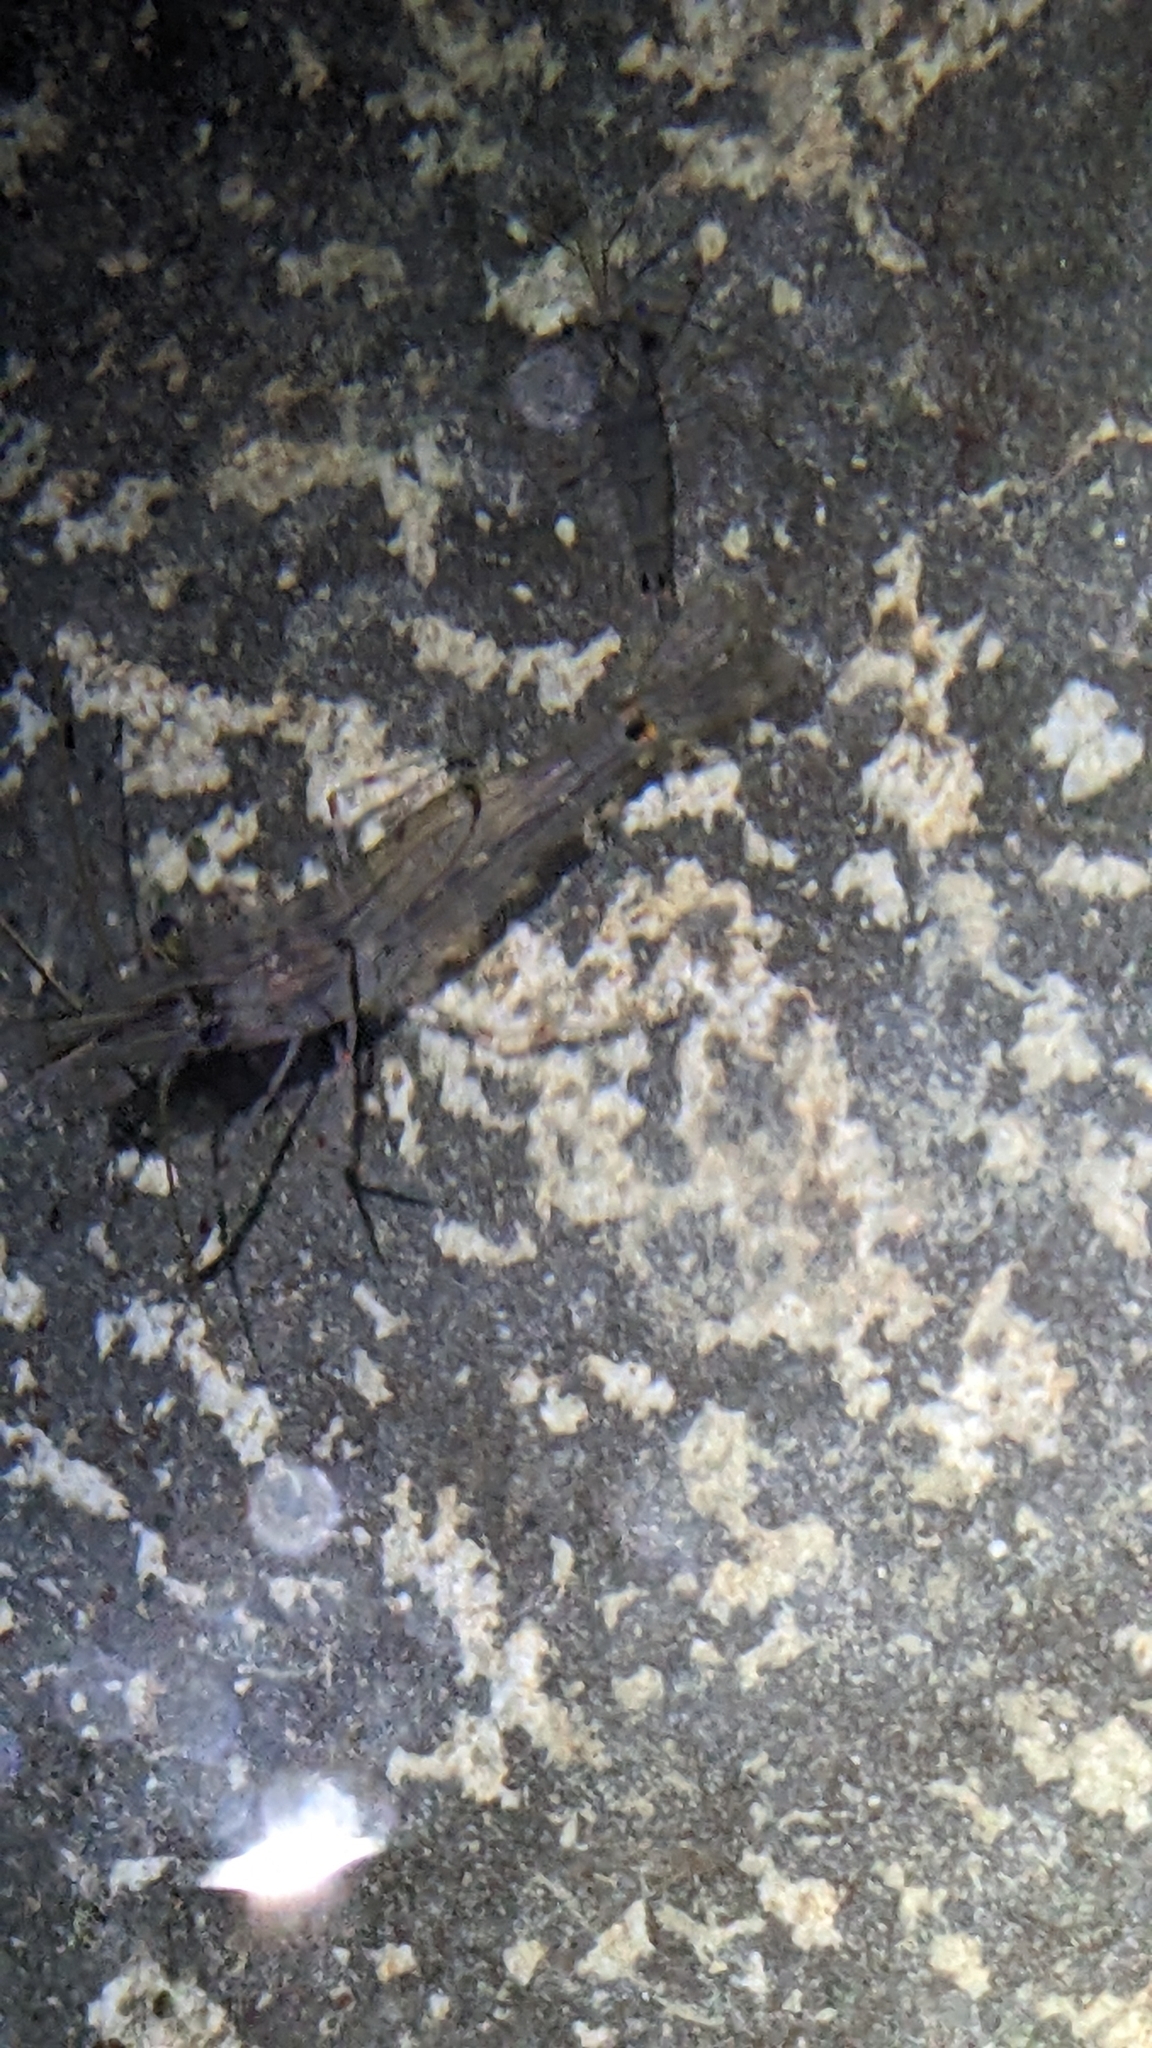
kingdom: Animalia
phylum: Arthropoda
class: Malacostraca
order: Decapoda
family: Palaemonidae
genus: Palaemon
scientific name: Palaemon affinis
